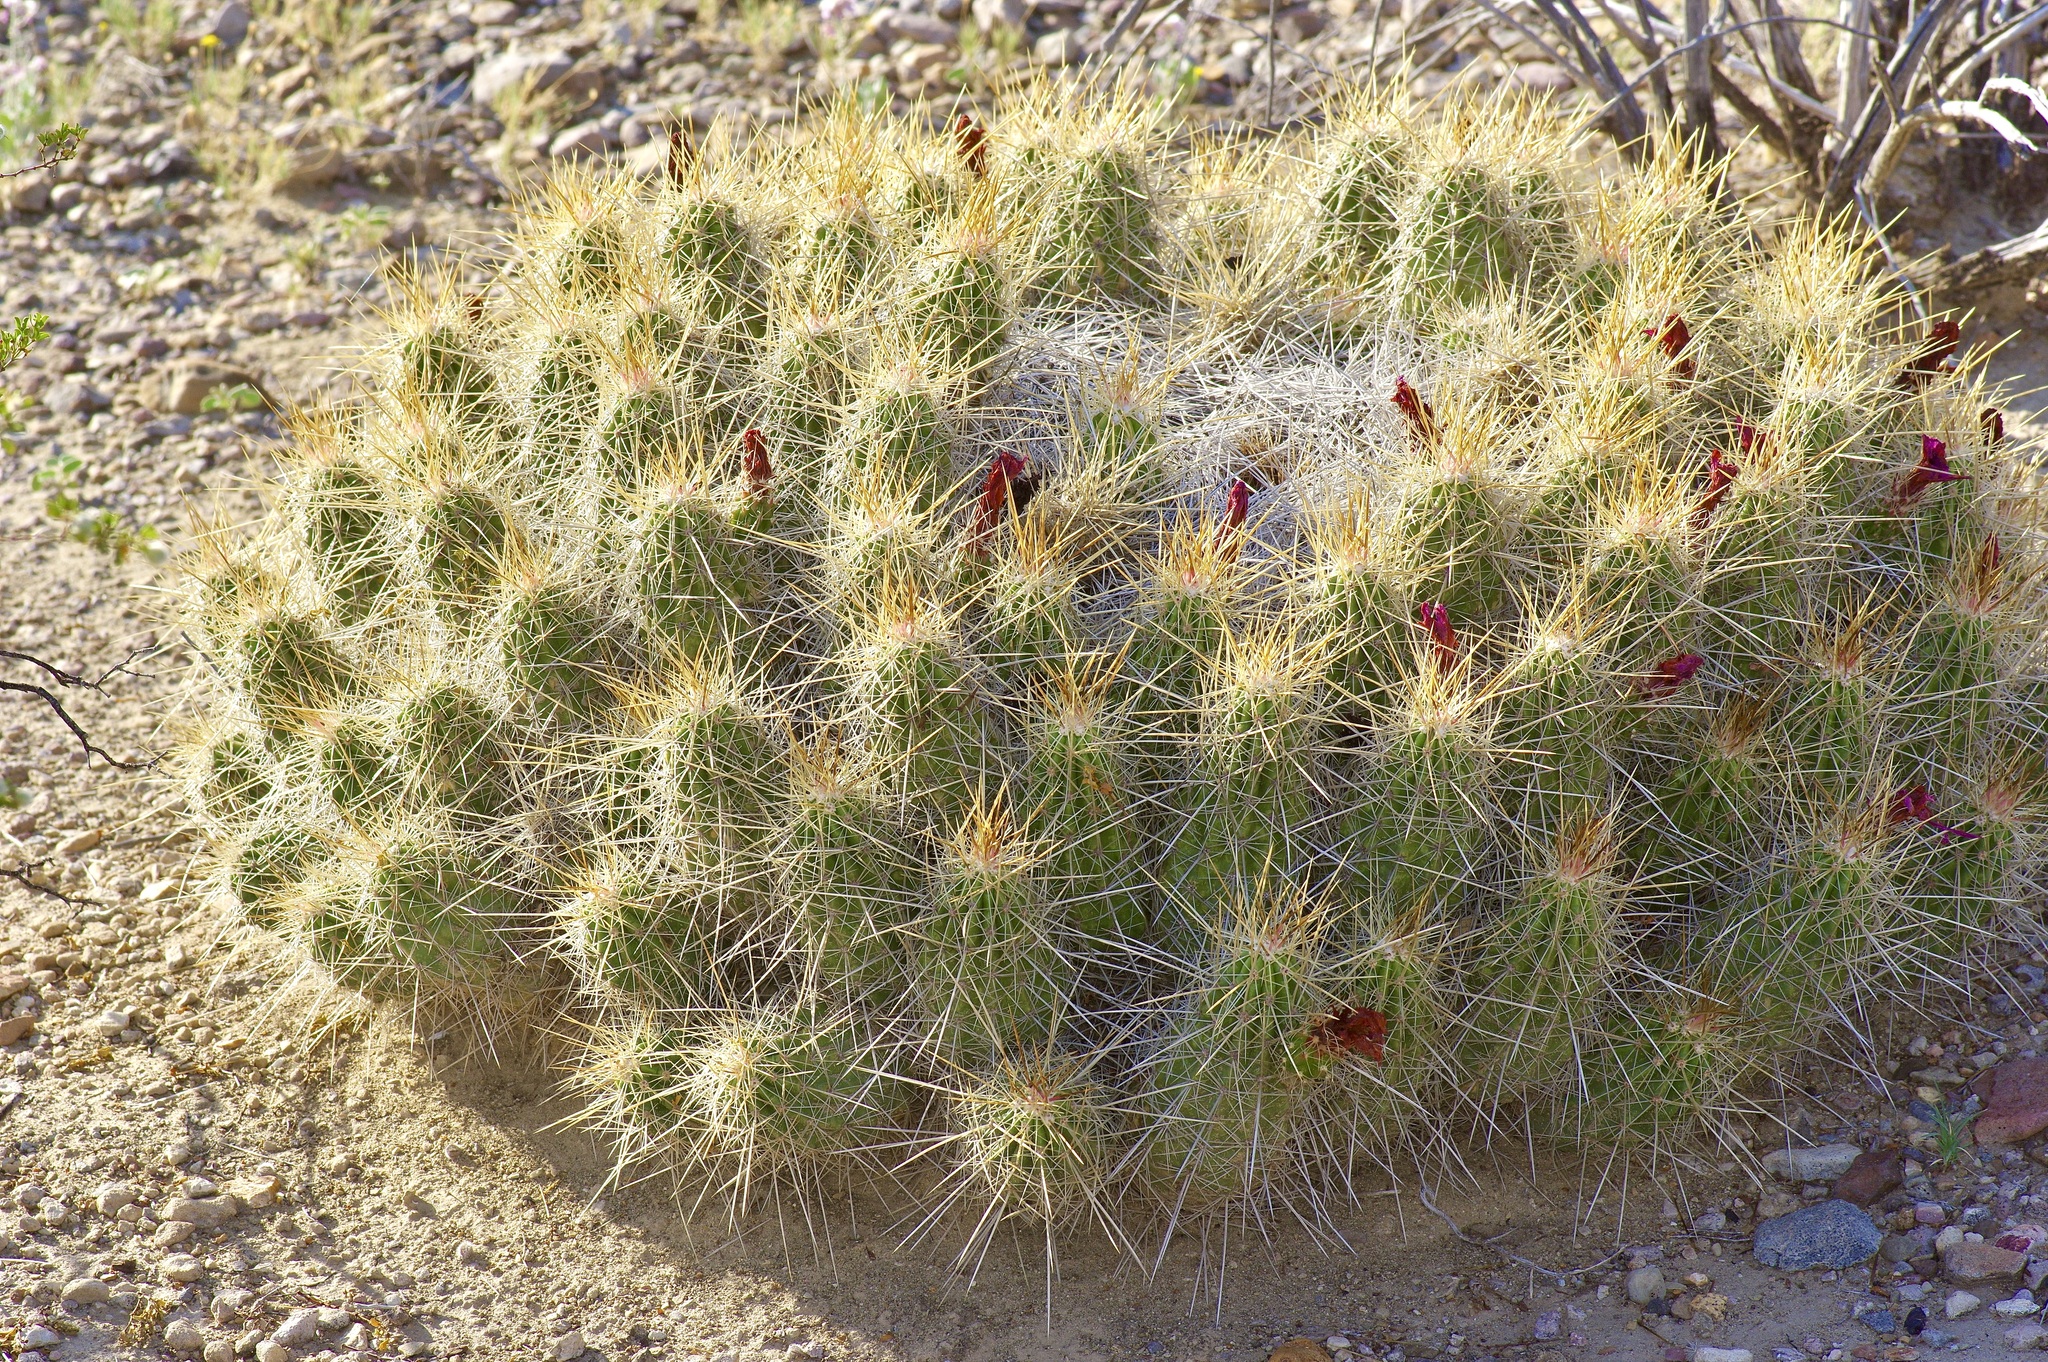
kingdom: Plantae
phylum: Tracheophyta
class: Magnoliopsida
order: Caryophyllales
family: Cactaceae
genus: Echinocereus
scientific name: Echinocereus stramineus
